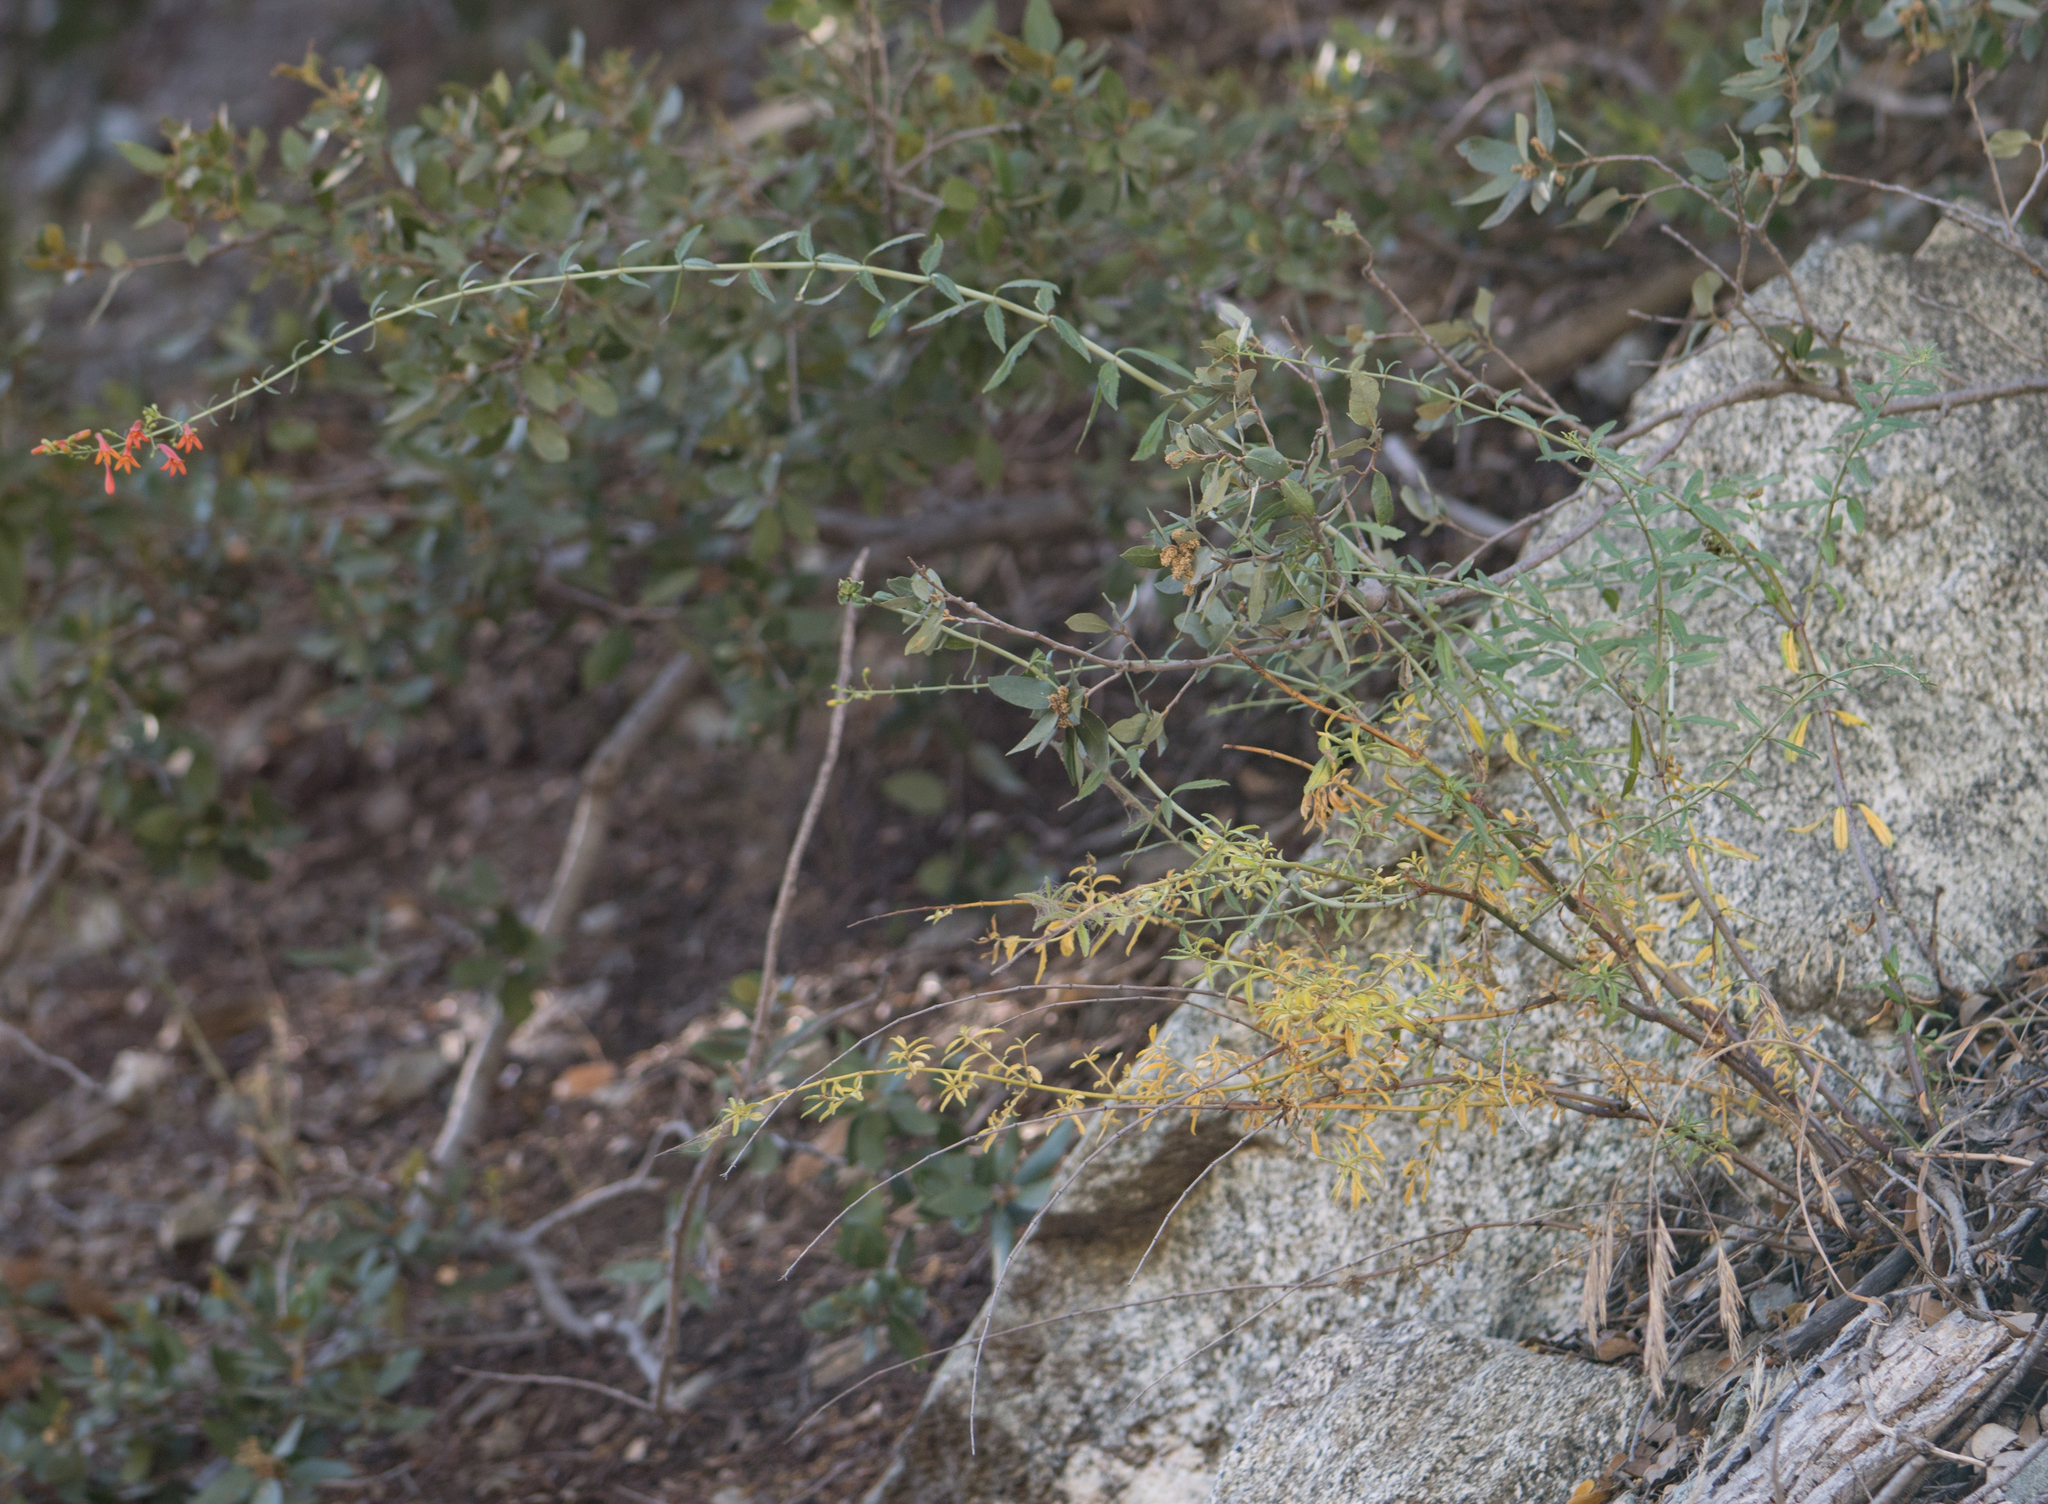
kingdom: Plantae
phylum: Tracheophyta
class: Magnoliopsida
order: Lamiales
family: Plantaginaceae
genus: Keckiella
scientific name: Keckiella ternata
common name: Scarlet keckiella
